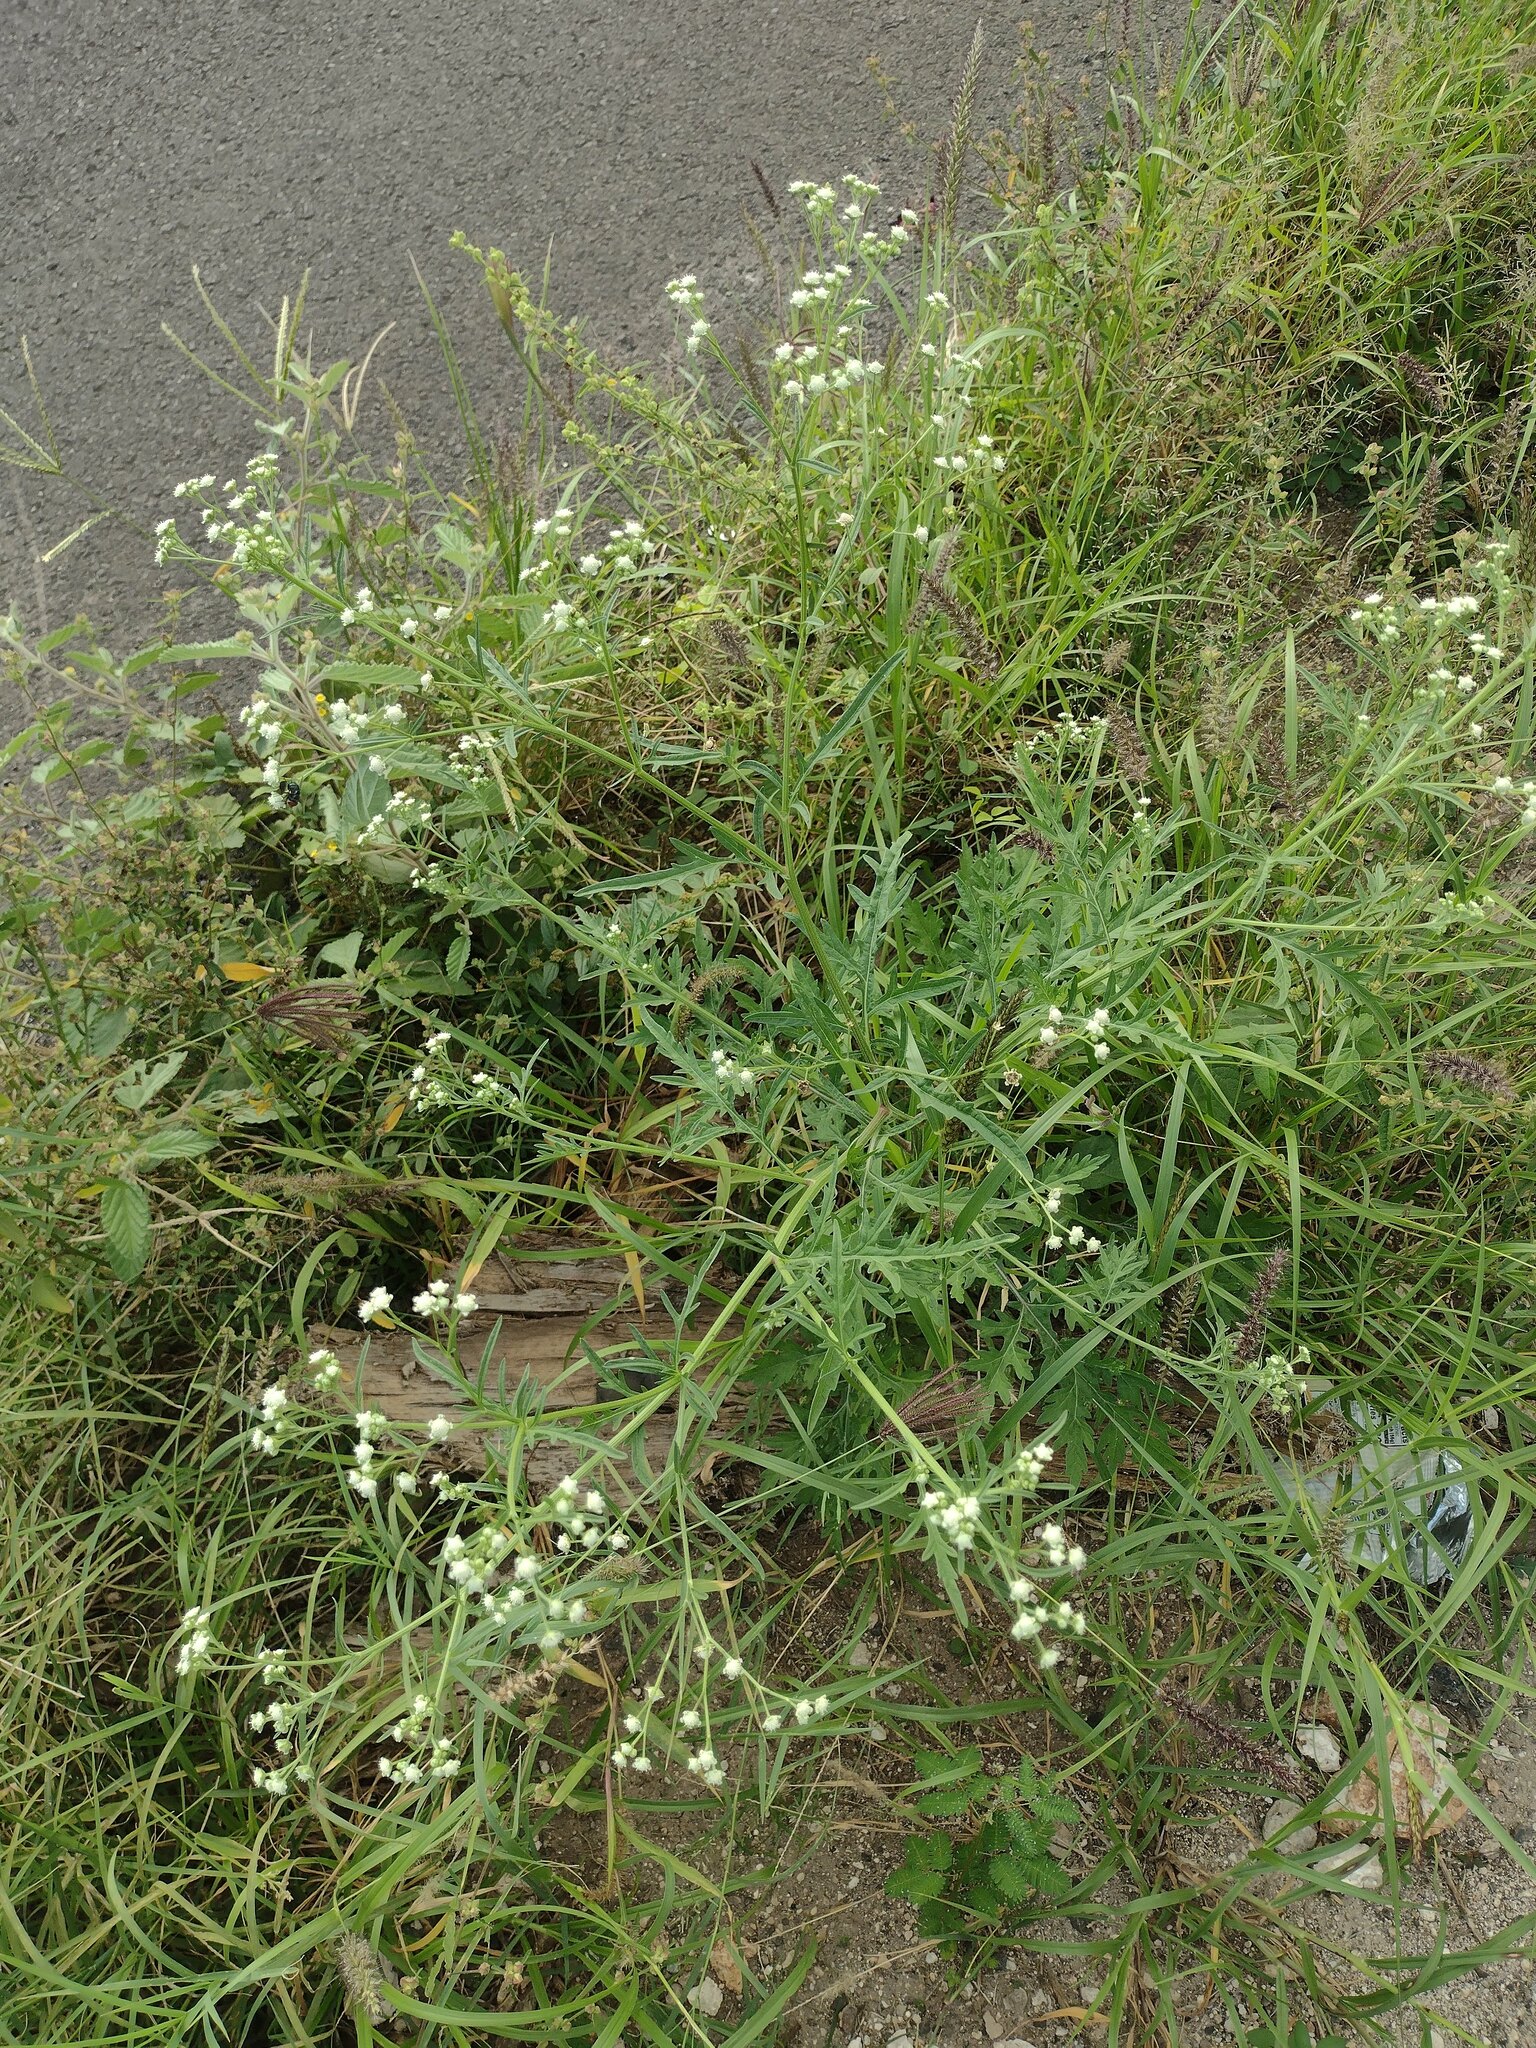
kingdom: Plantae
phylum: Tracheophyta
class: Magnoliopsida
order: Asterales
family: Asteraceae
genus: Parthenium
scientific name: Parthenium hysterophorus
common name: Santa maria feverfew
